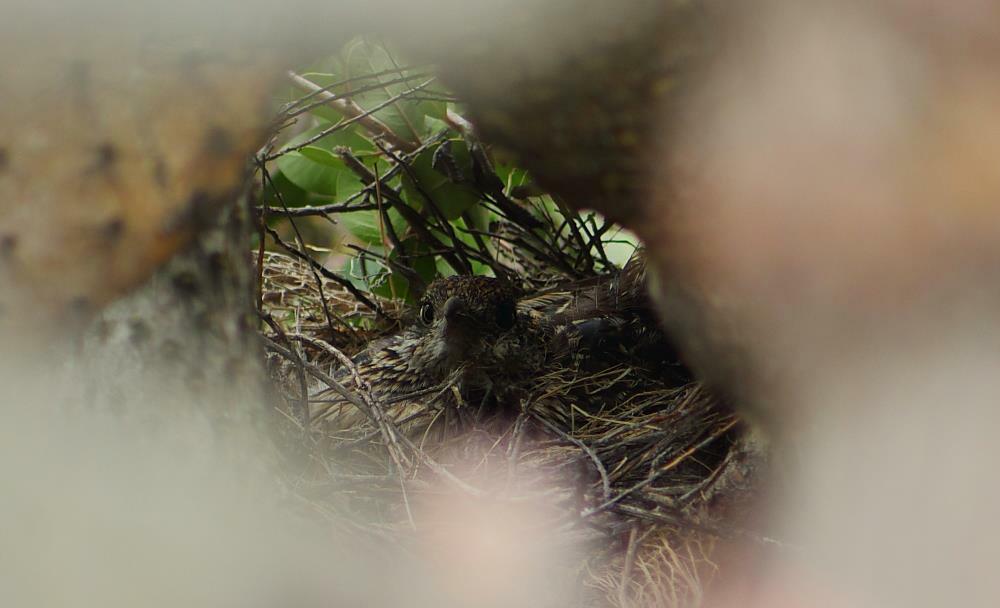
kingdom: Animalia
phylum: Chordata
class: Aves
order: Cuculiformes
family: Cuculidae
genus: Geococcyx
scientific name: Geococcyx californianus
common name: Greater roadrunner
